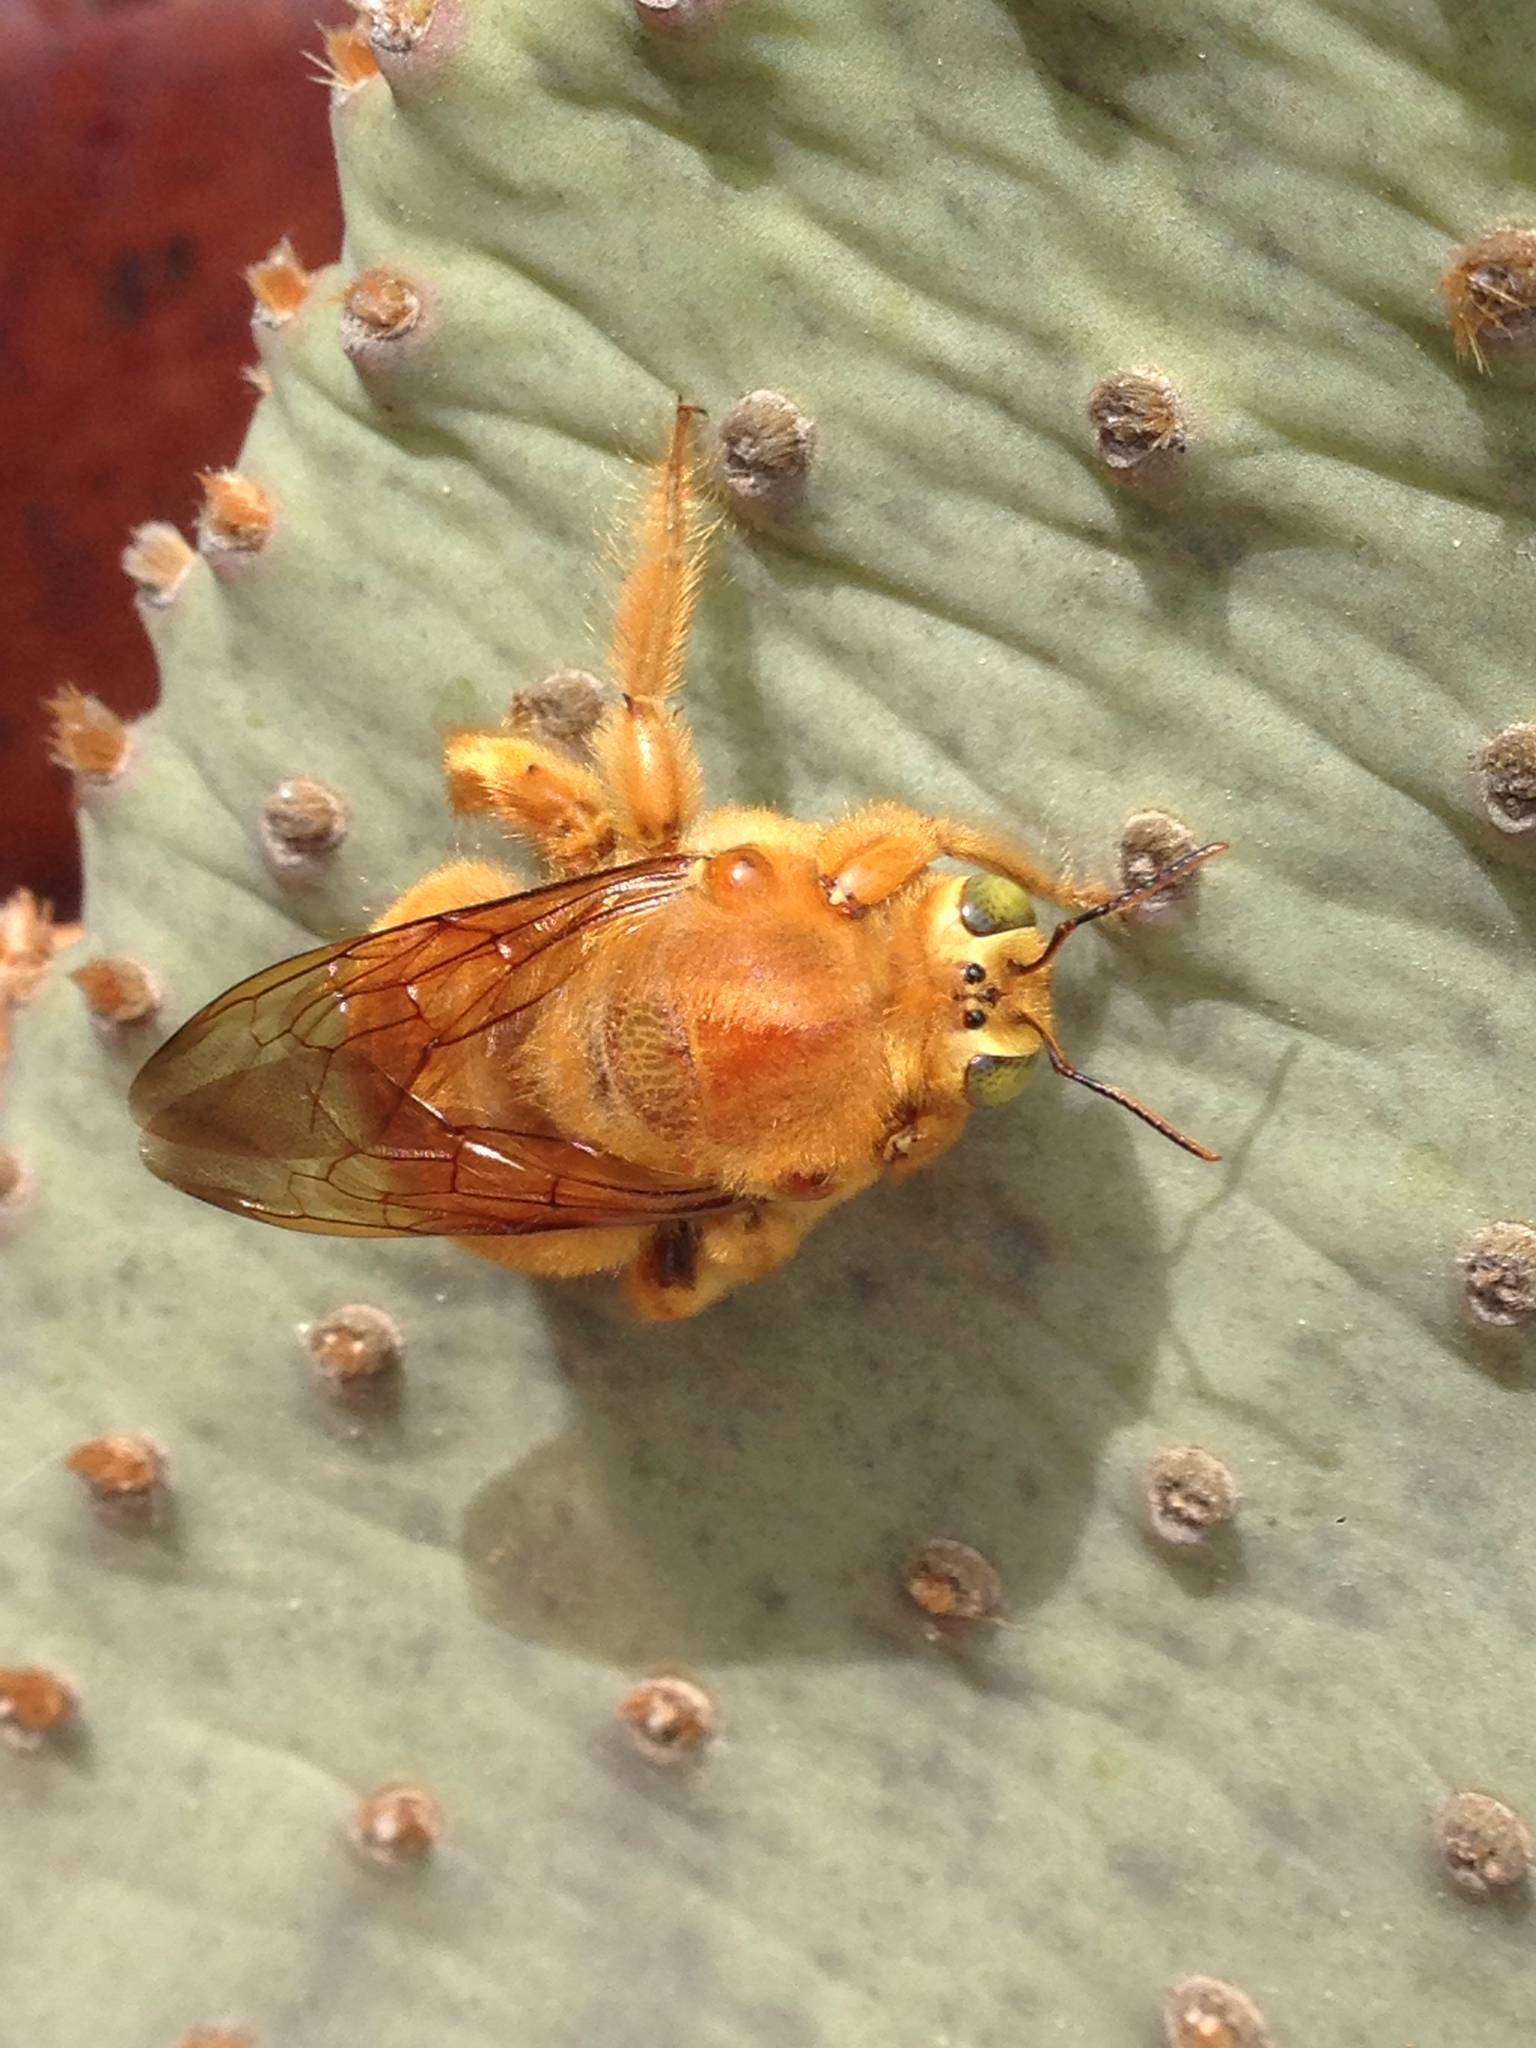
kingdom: Animalia
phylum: Arthropoda
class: Insecta
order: Hymenoptera
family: Apidae
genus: Xylocopa
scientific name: Xylocopa sonorina
